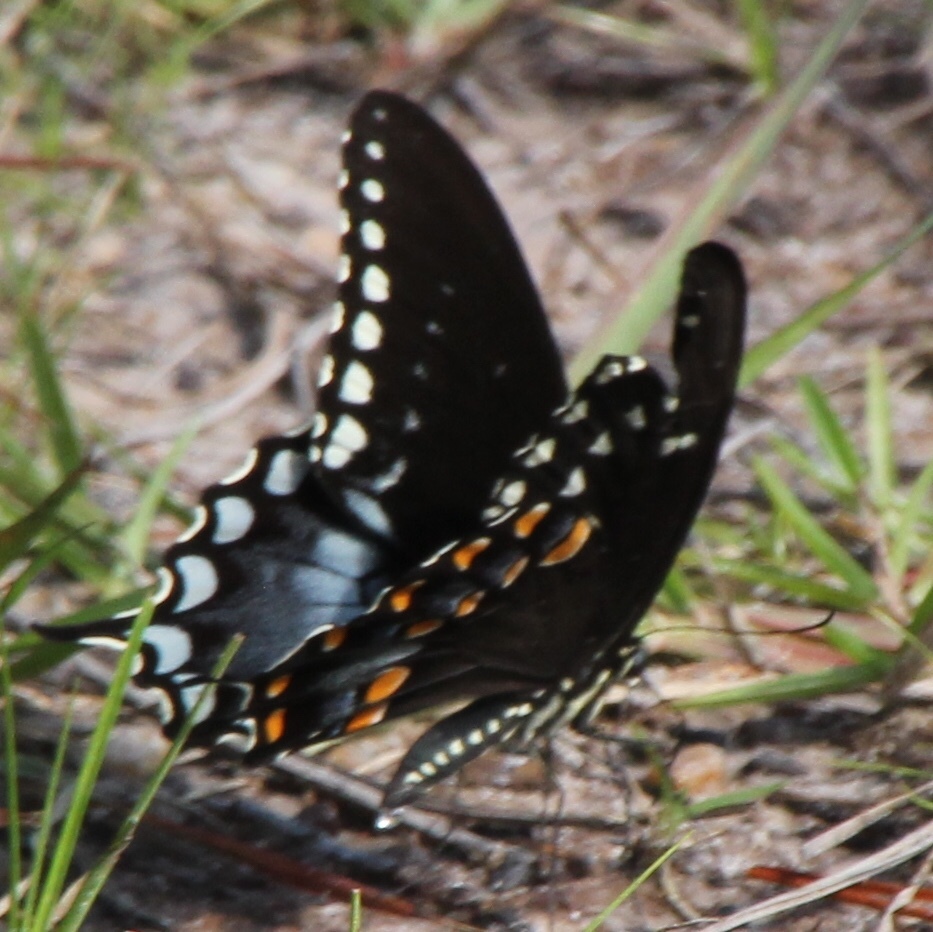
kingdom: Animalia
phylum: Arthropoda
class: Insecta
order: Lepidoptera
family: Papilionidae
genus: Papilio
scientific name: Papilio troilus
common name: Spicebush swallowtail
